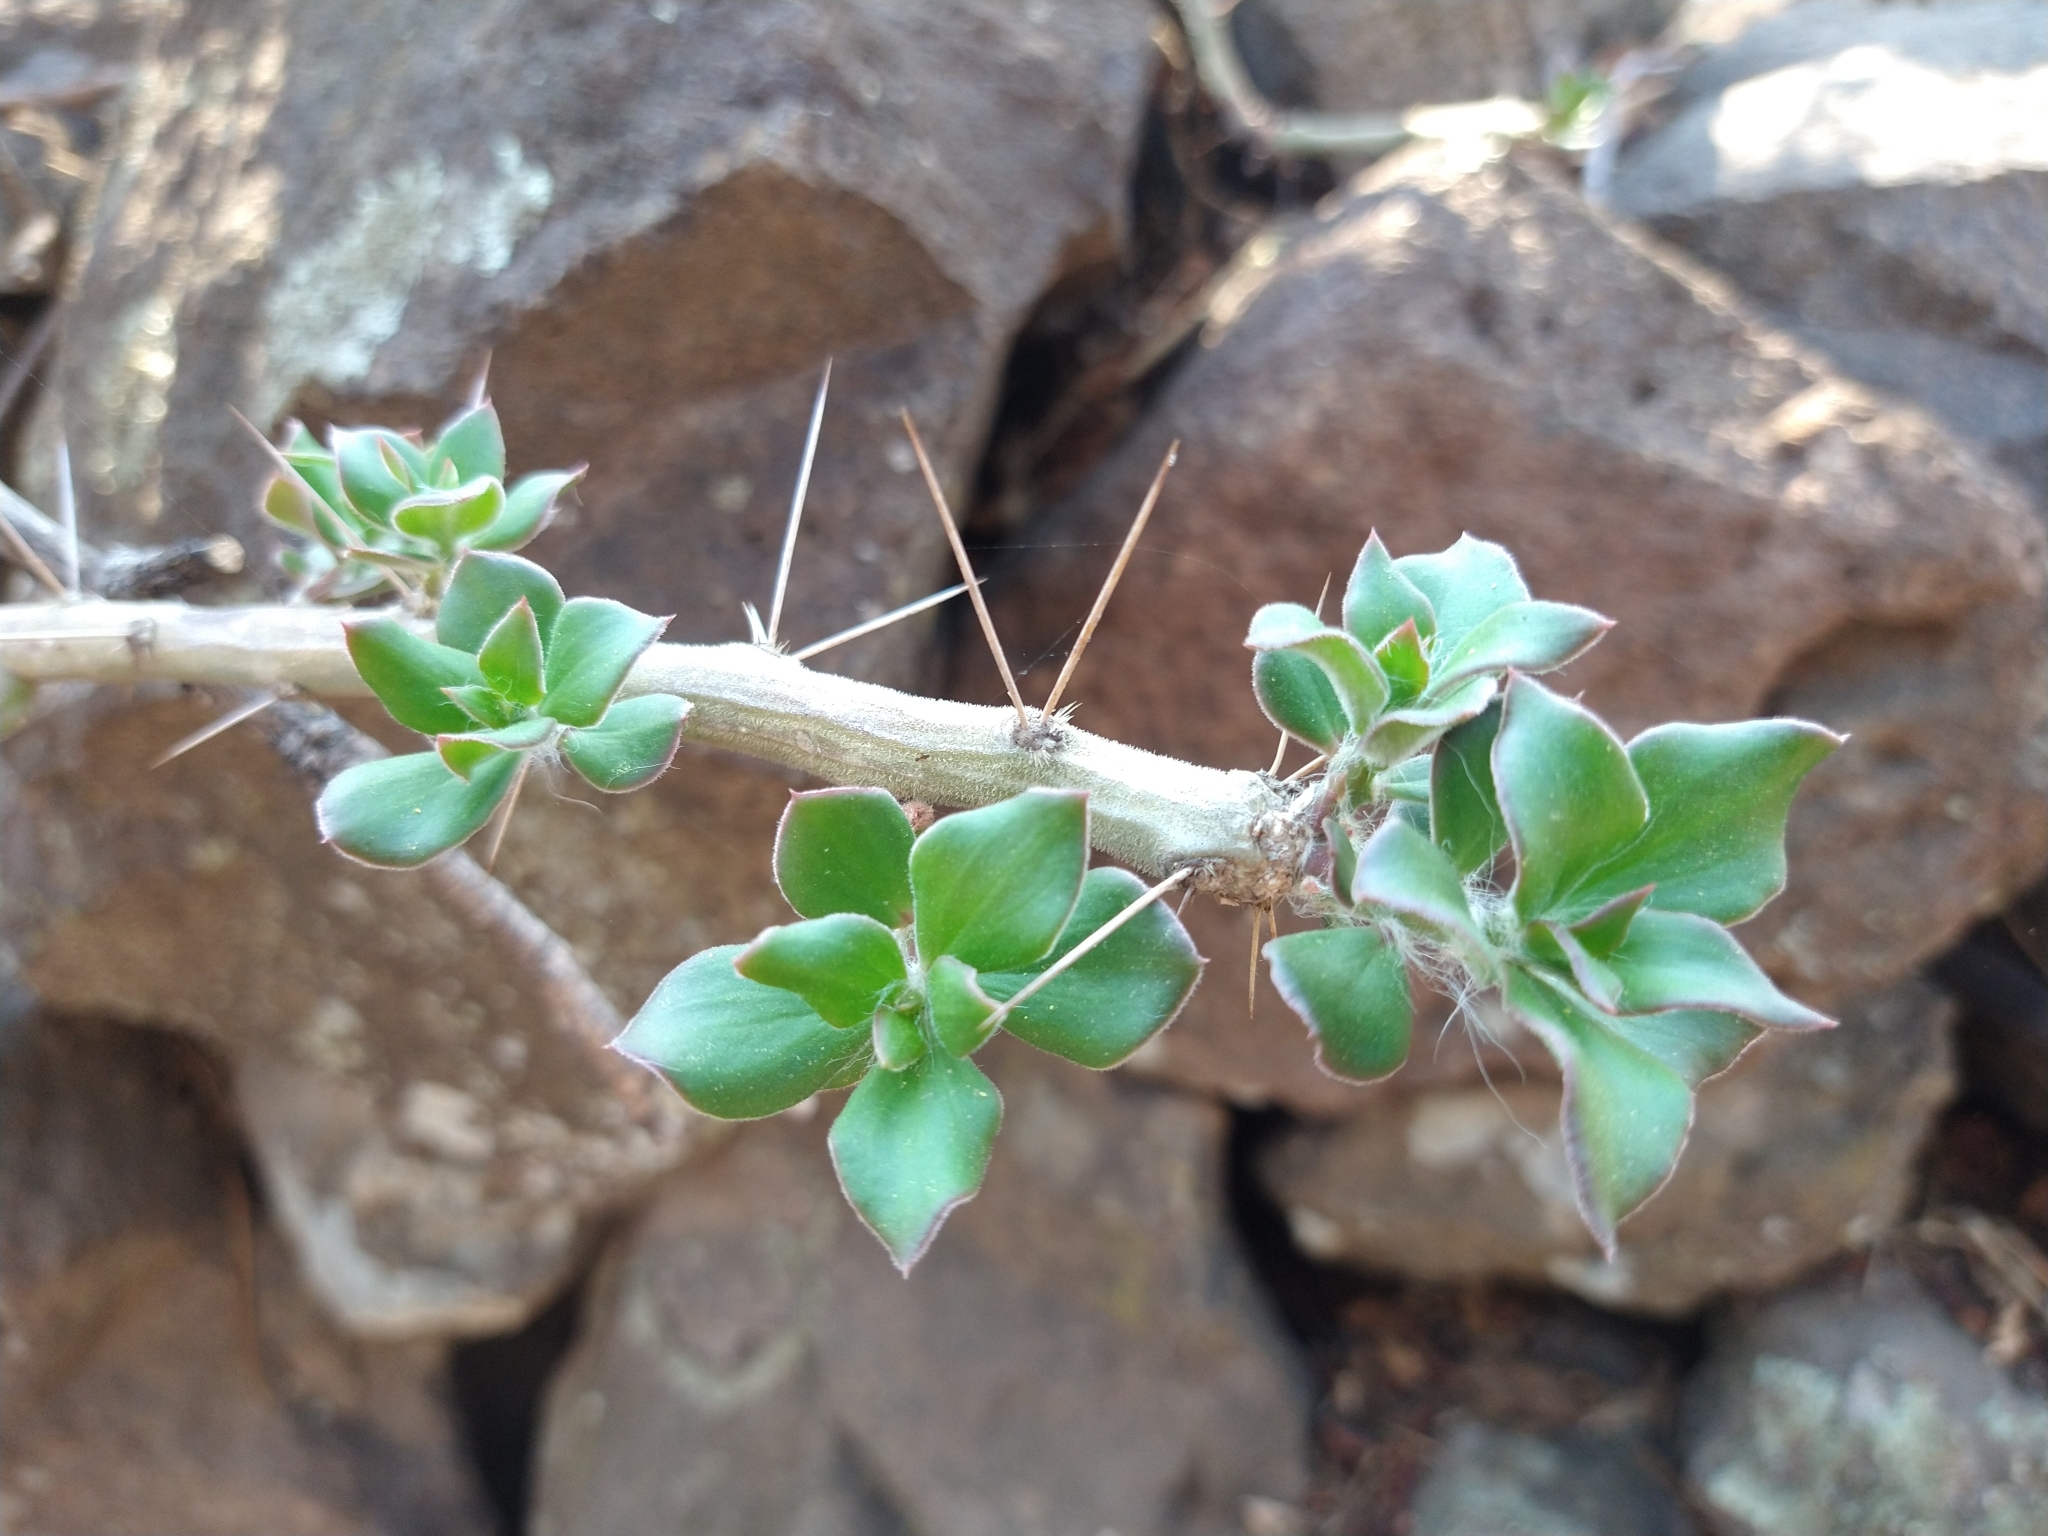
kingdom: Plantae
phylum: Tracheophyta
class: Magnoliopsida
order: Caryophyllales
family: Cactaceae
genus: Pereskiopsis
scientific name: Pereskiopsis diguetii
